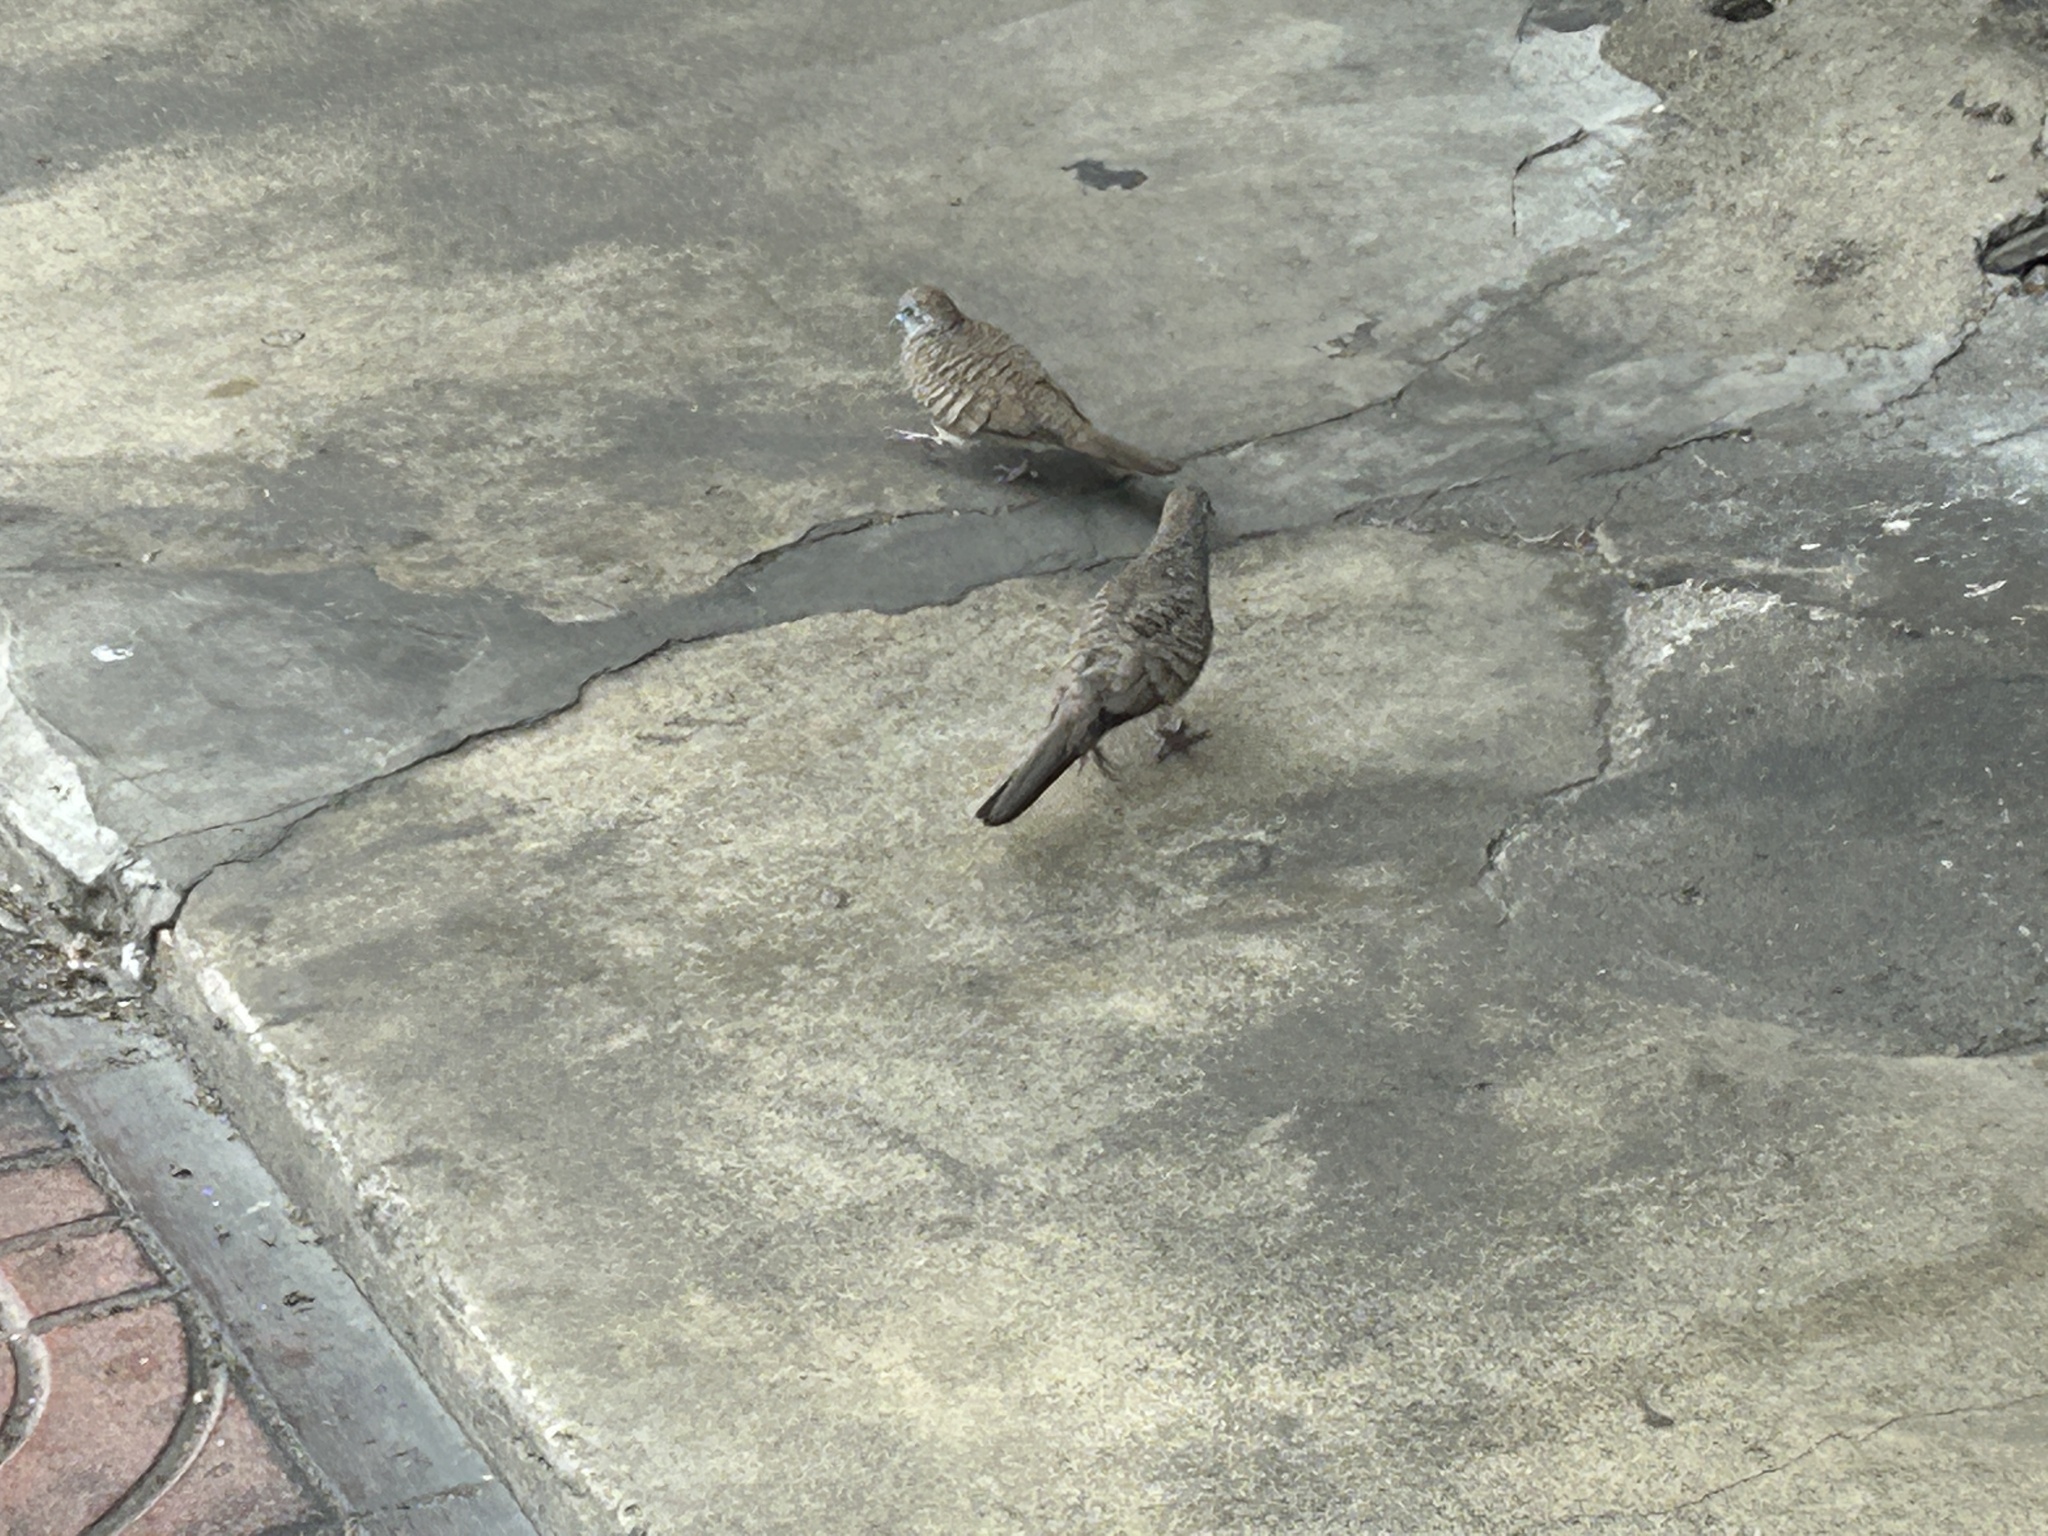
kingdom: Animalia
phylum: Chordata
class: Aves
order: Columbiformes
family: Columbidae
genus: Geopelia
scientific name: Geopelia striata
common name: Zebra dove
